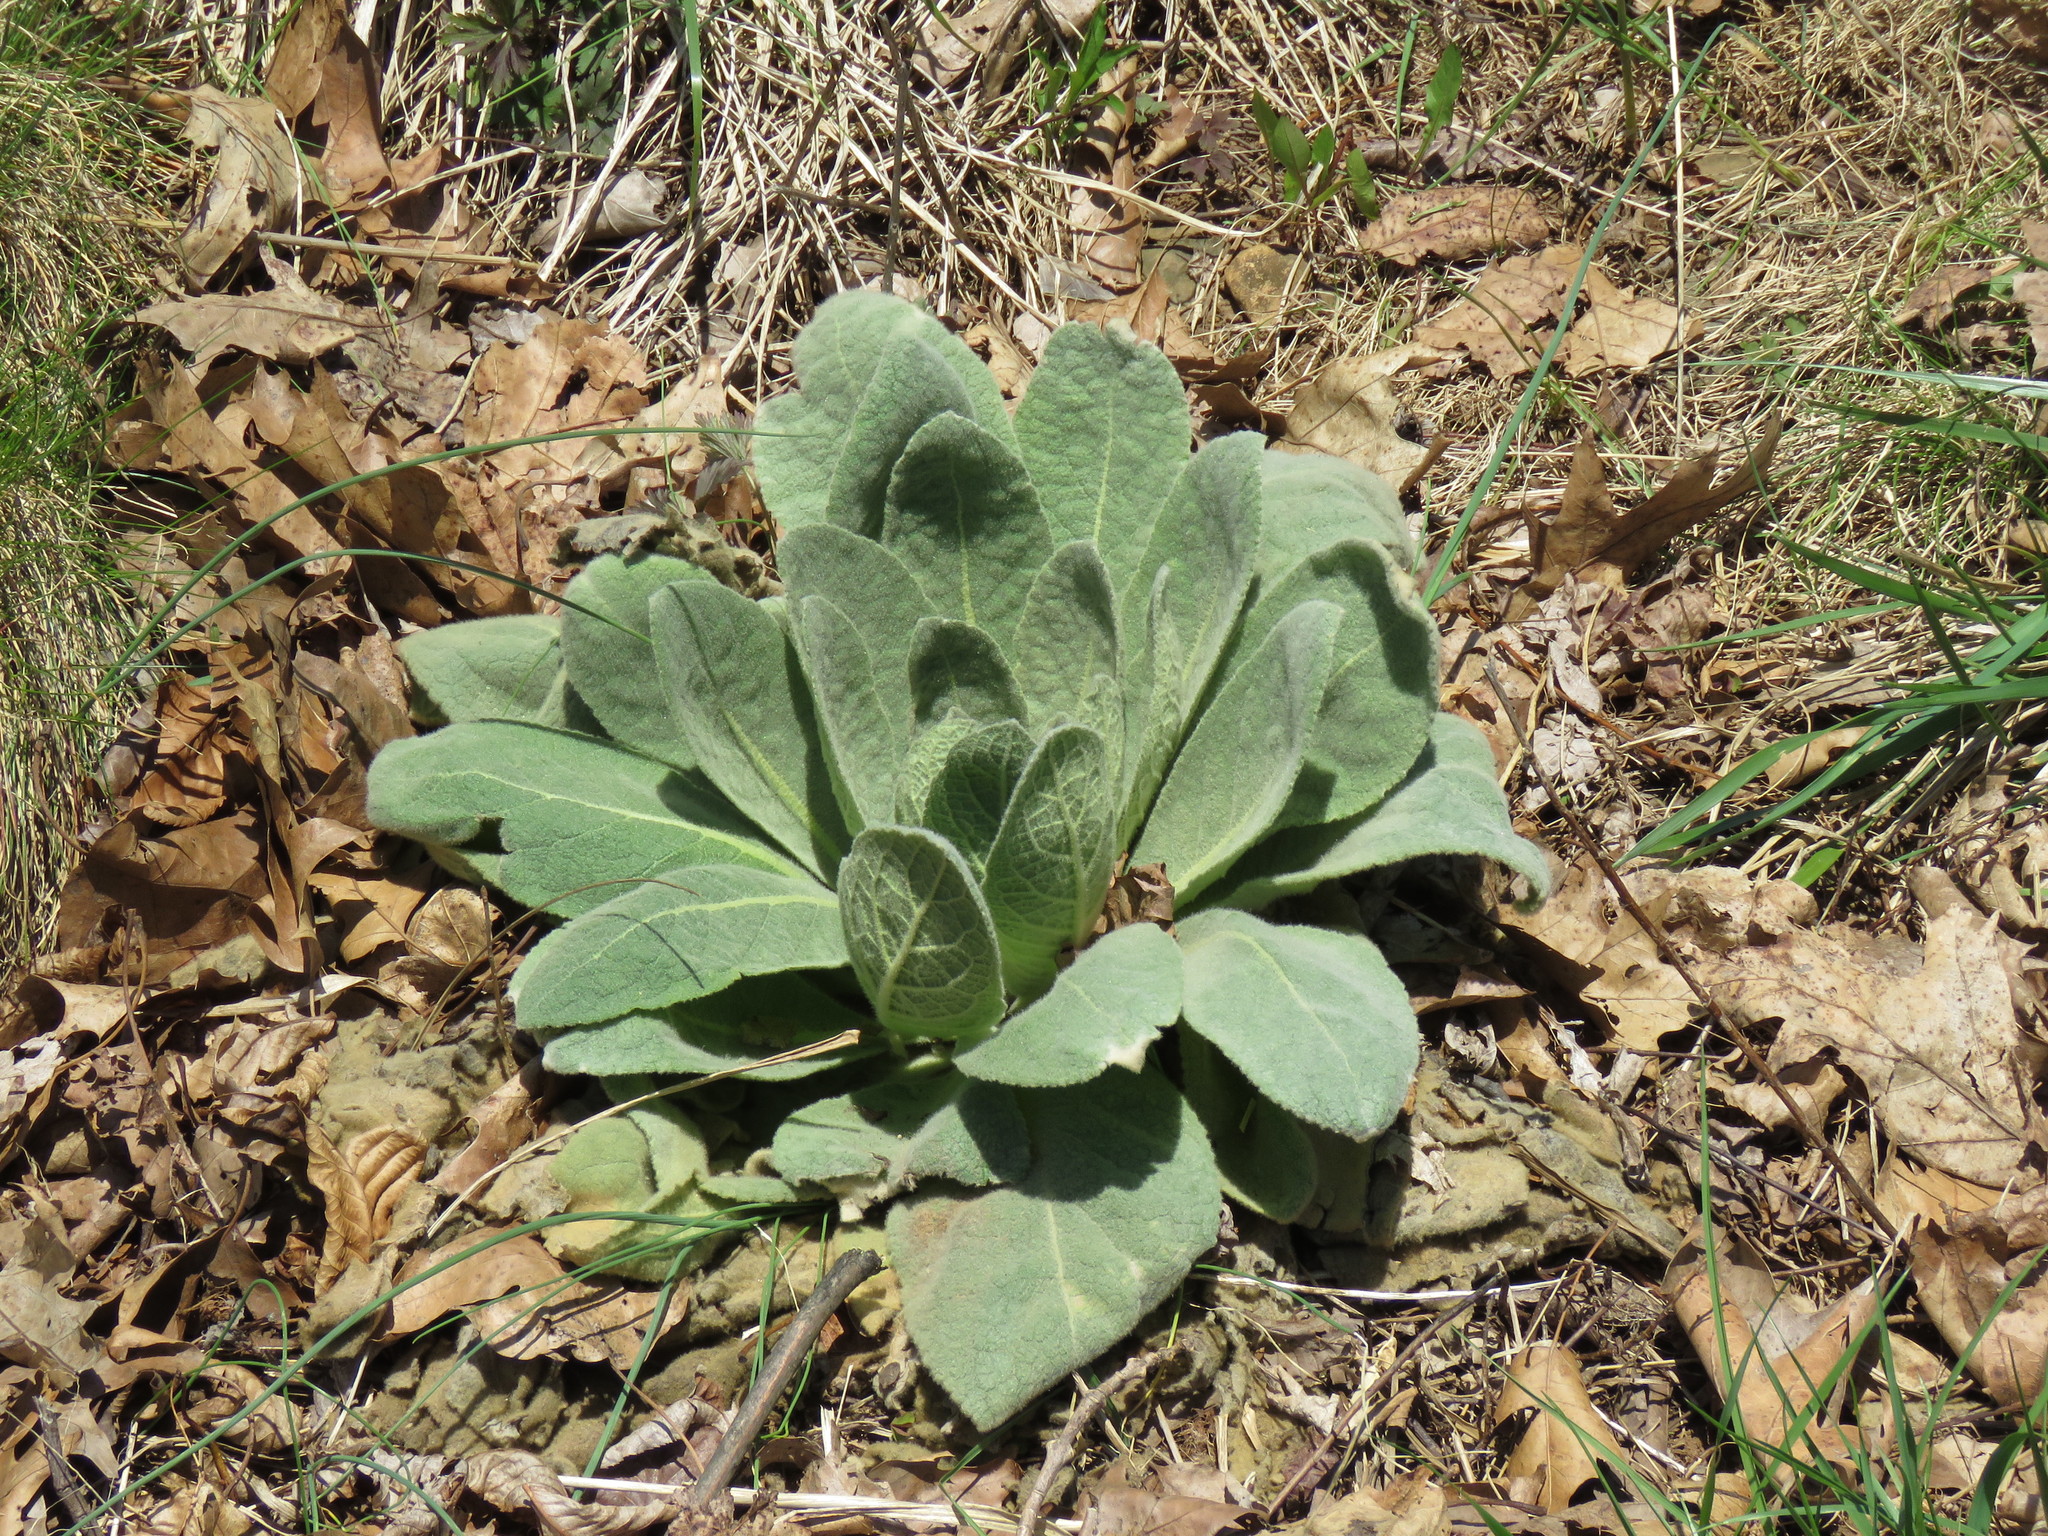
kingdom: Plantae
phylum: Tracheophyta
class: Magnoliopsida
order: Lamiales
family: Scrophulariaceae
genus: Verbascum
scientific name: Verbascum thapsus
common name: Common mullein
